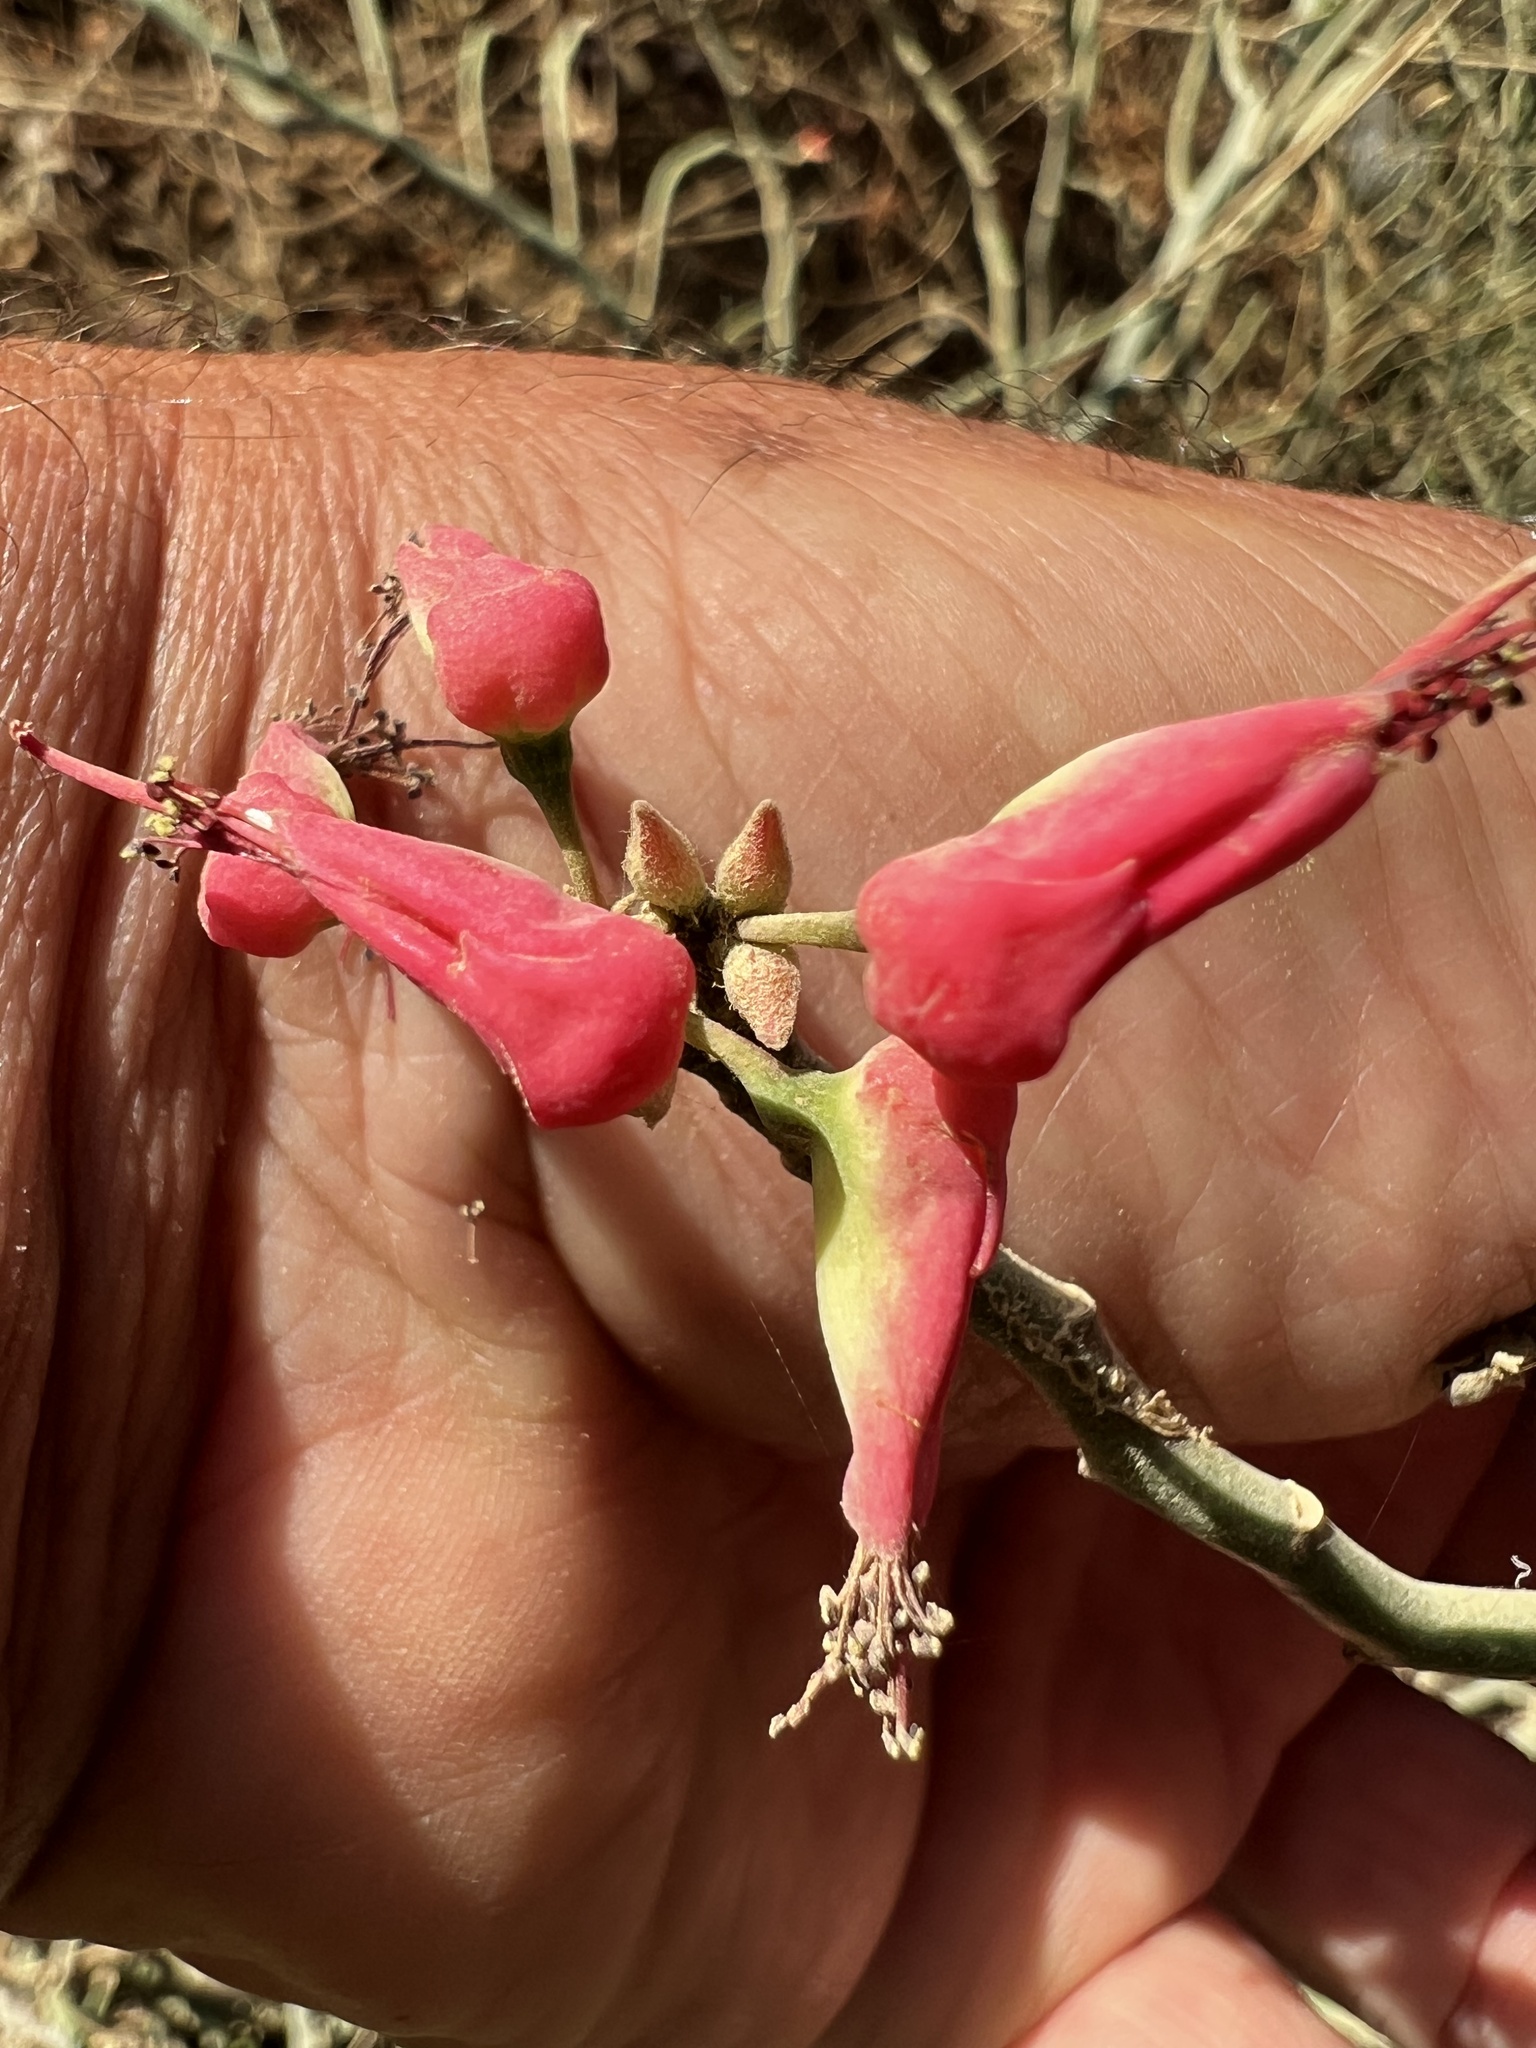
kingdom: Plantae
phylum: Tracheophyta
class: Magnoliopsida
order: Malpighiales
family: Euphorbiaceae
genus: Euphorbia
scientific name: Euphorbia tithymaloides
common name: Slipperplant
